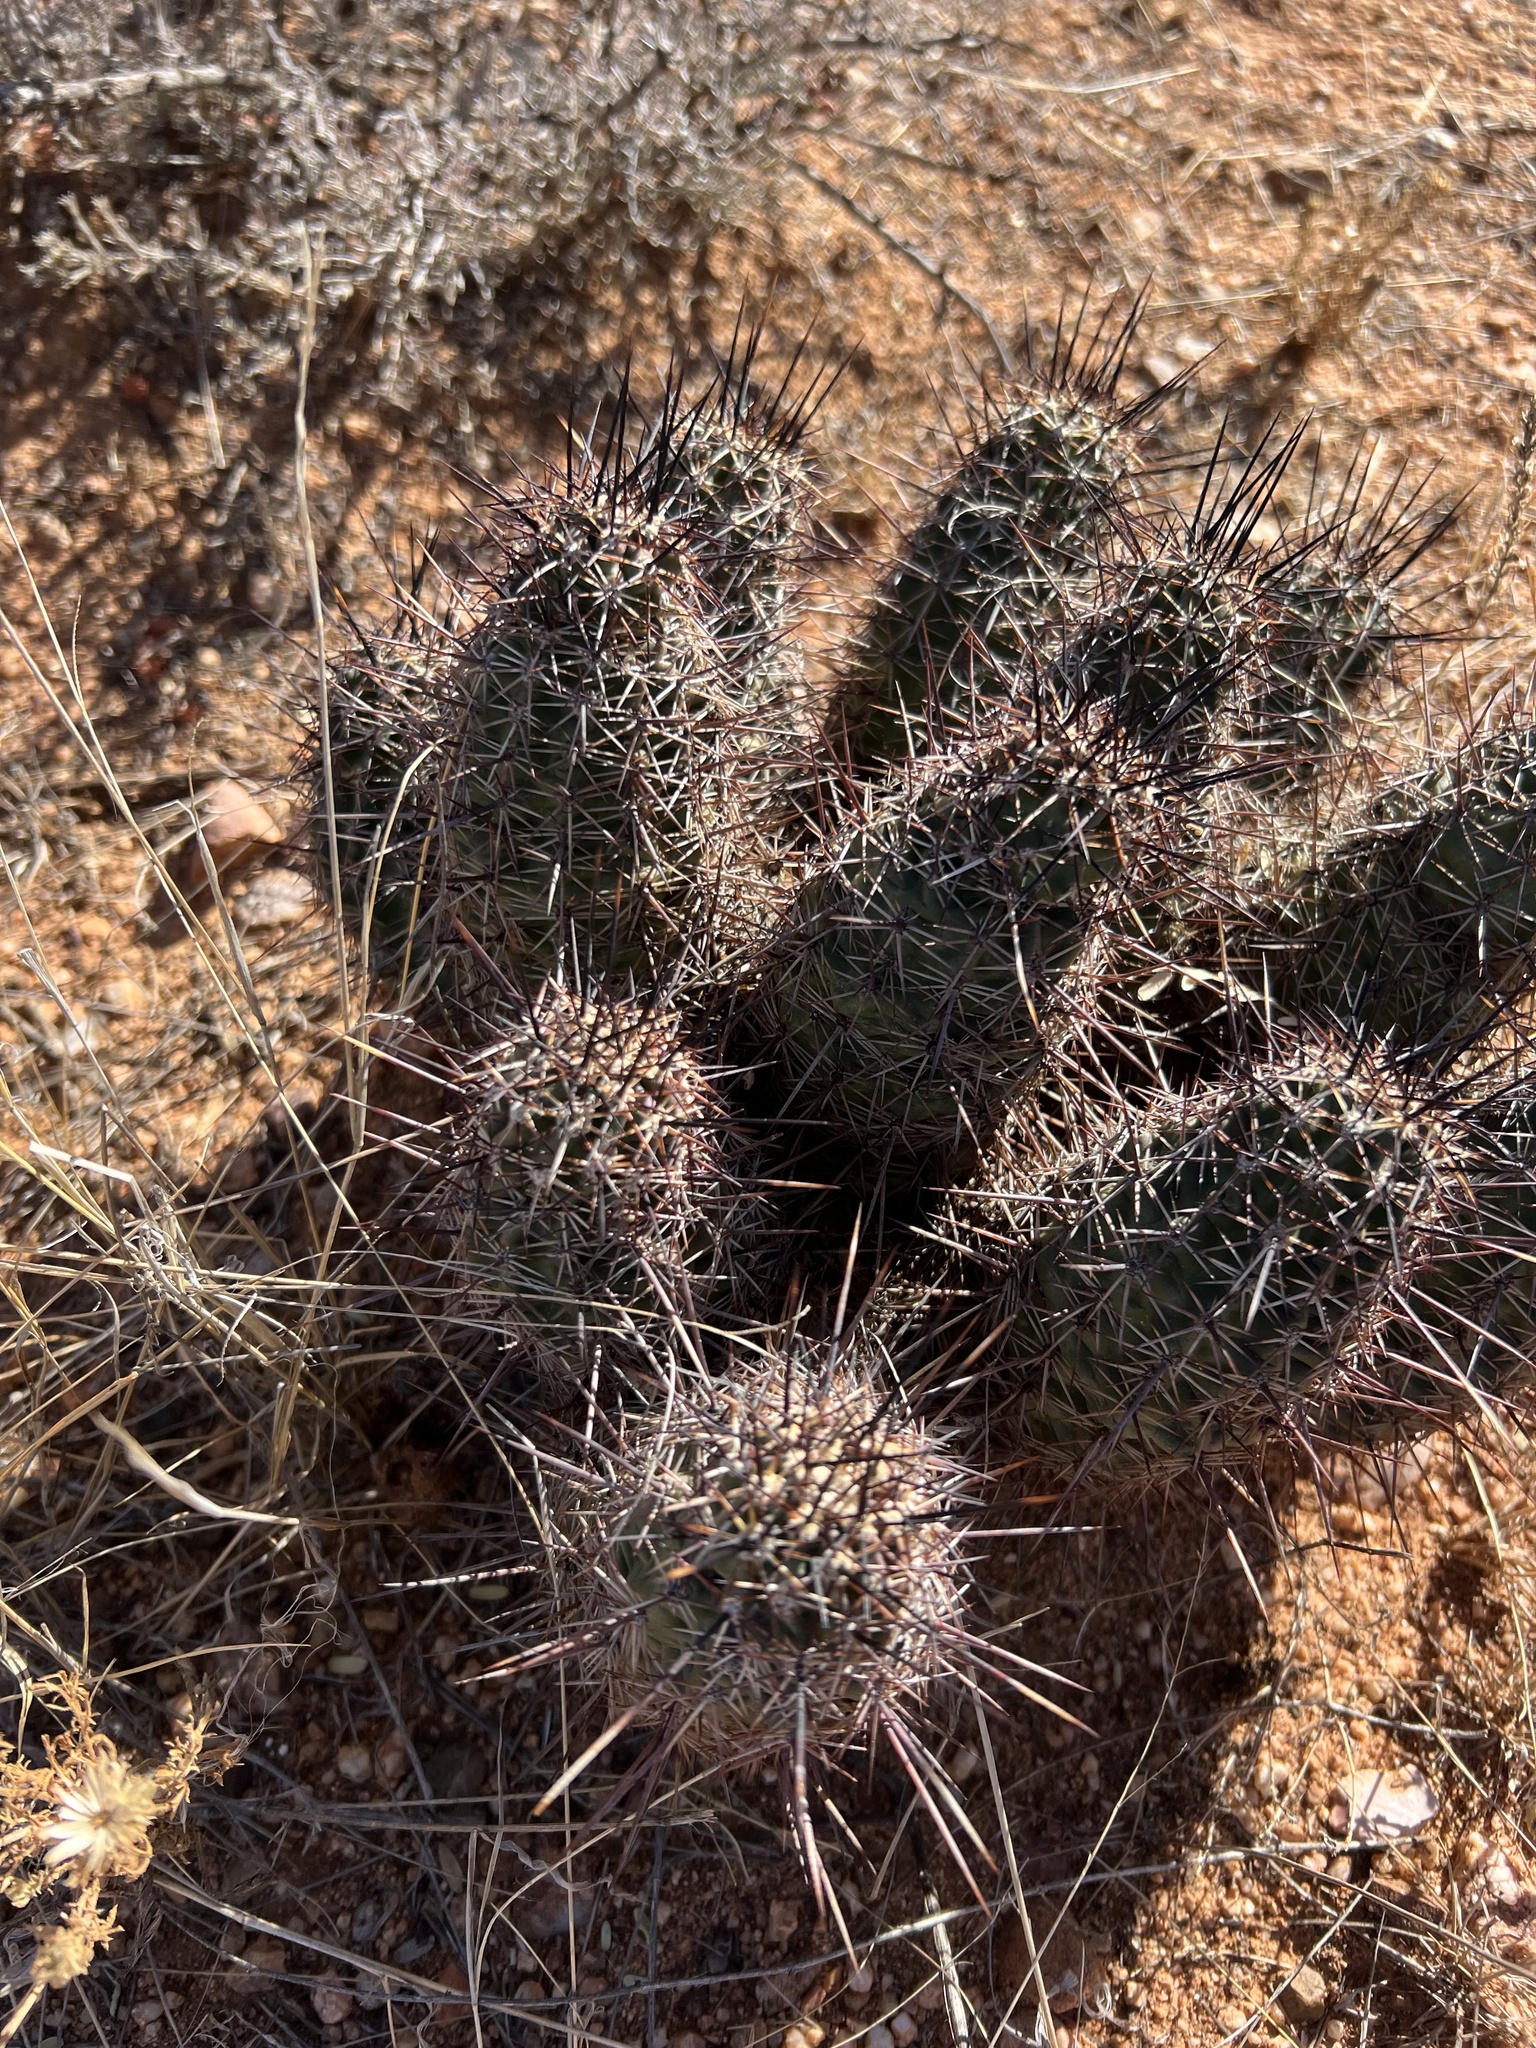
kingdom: Plantae
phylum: Tracheophyta
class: Magnoliopsida
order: Caryophyllales
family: Cactaceae
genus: Echinocereus
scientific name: Echinocereus fasciculatus
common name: Bundle hedgehog
